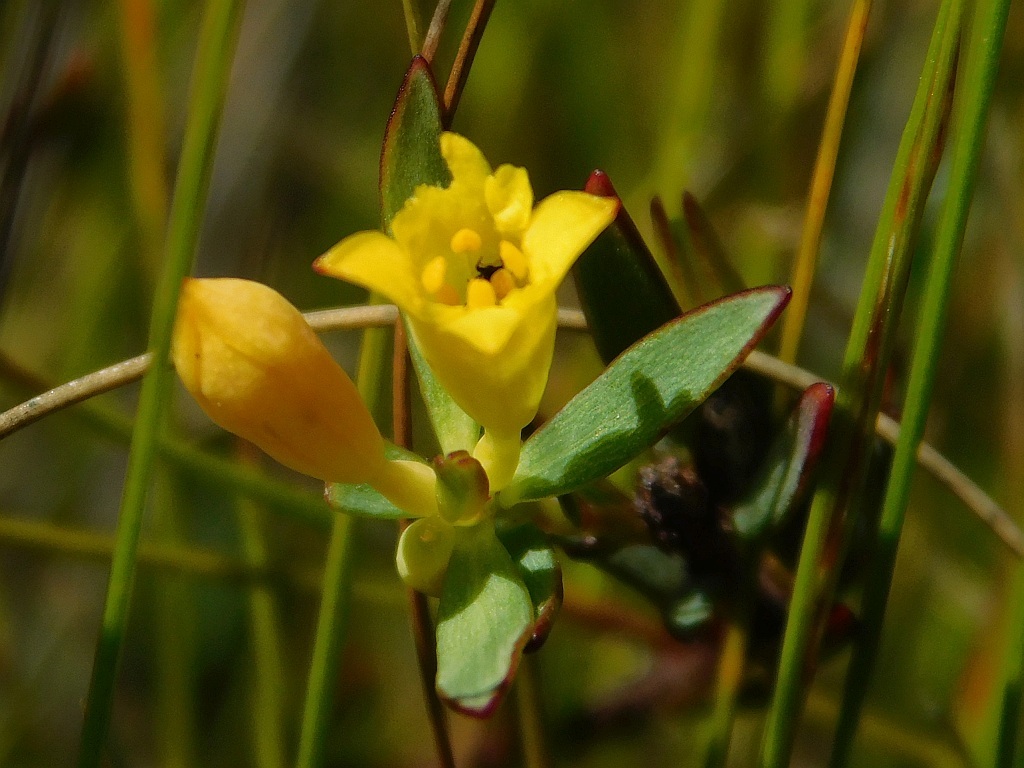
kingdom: Plantae
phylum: Tracheophyta
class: Magnoliopsida
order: Malvales
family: Thymelaeaceae
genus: Gnidia
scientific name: Gnidia juniperifolia
